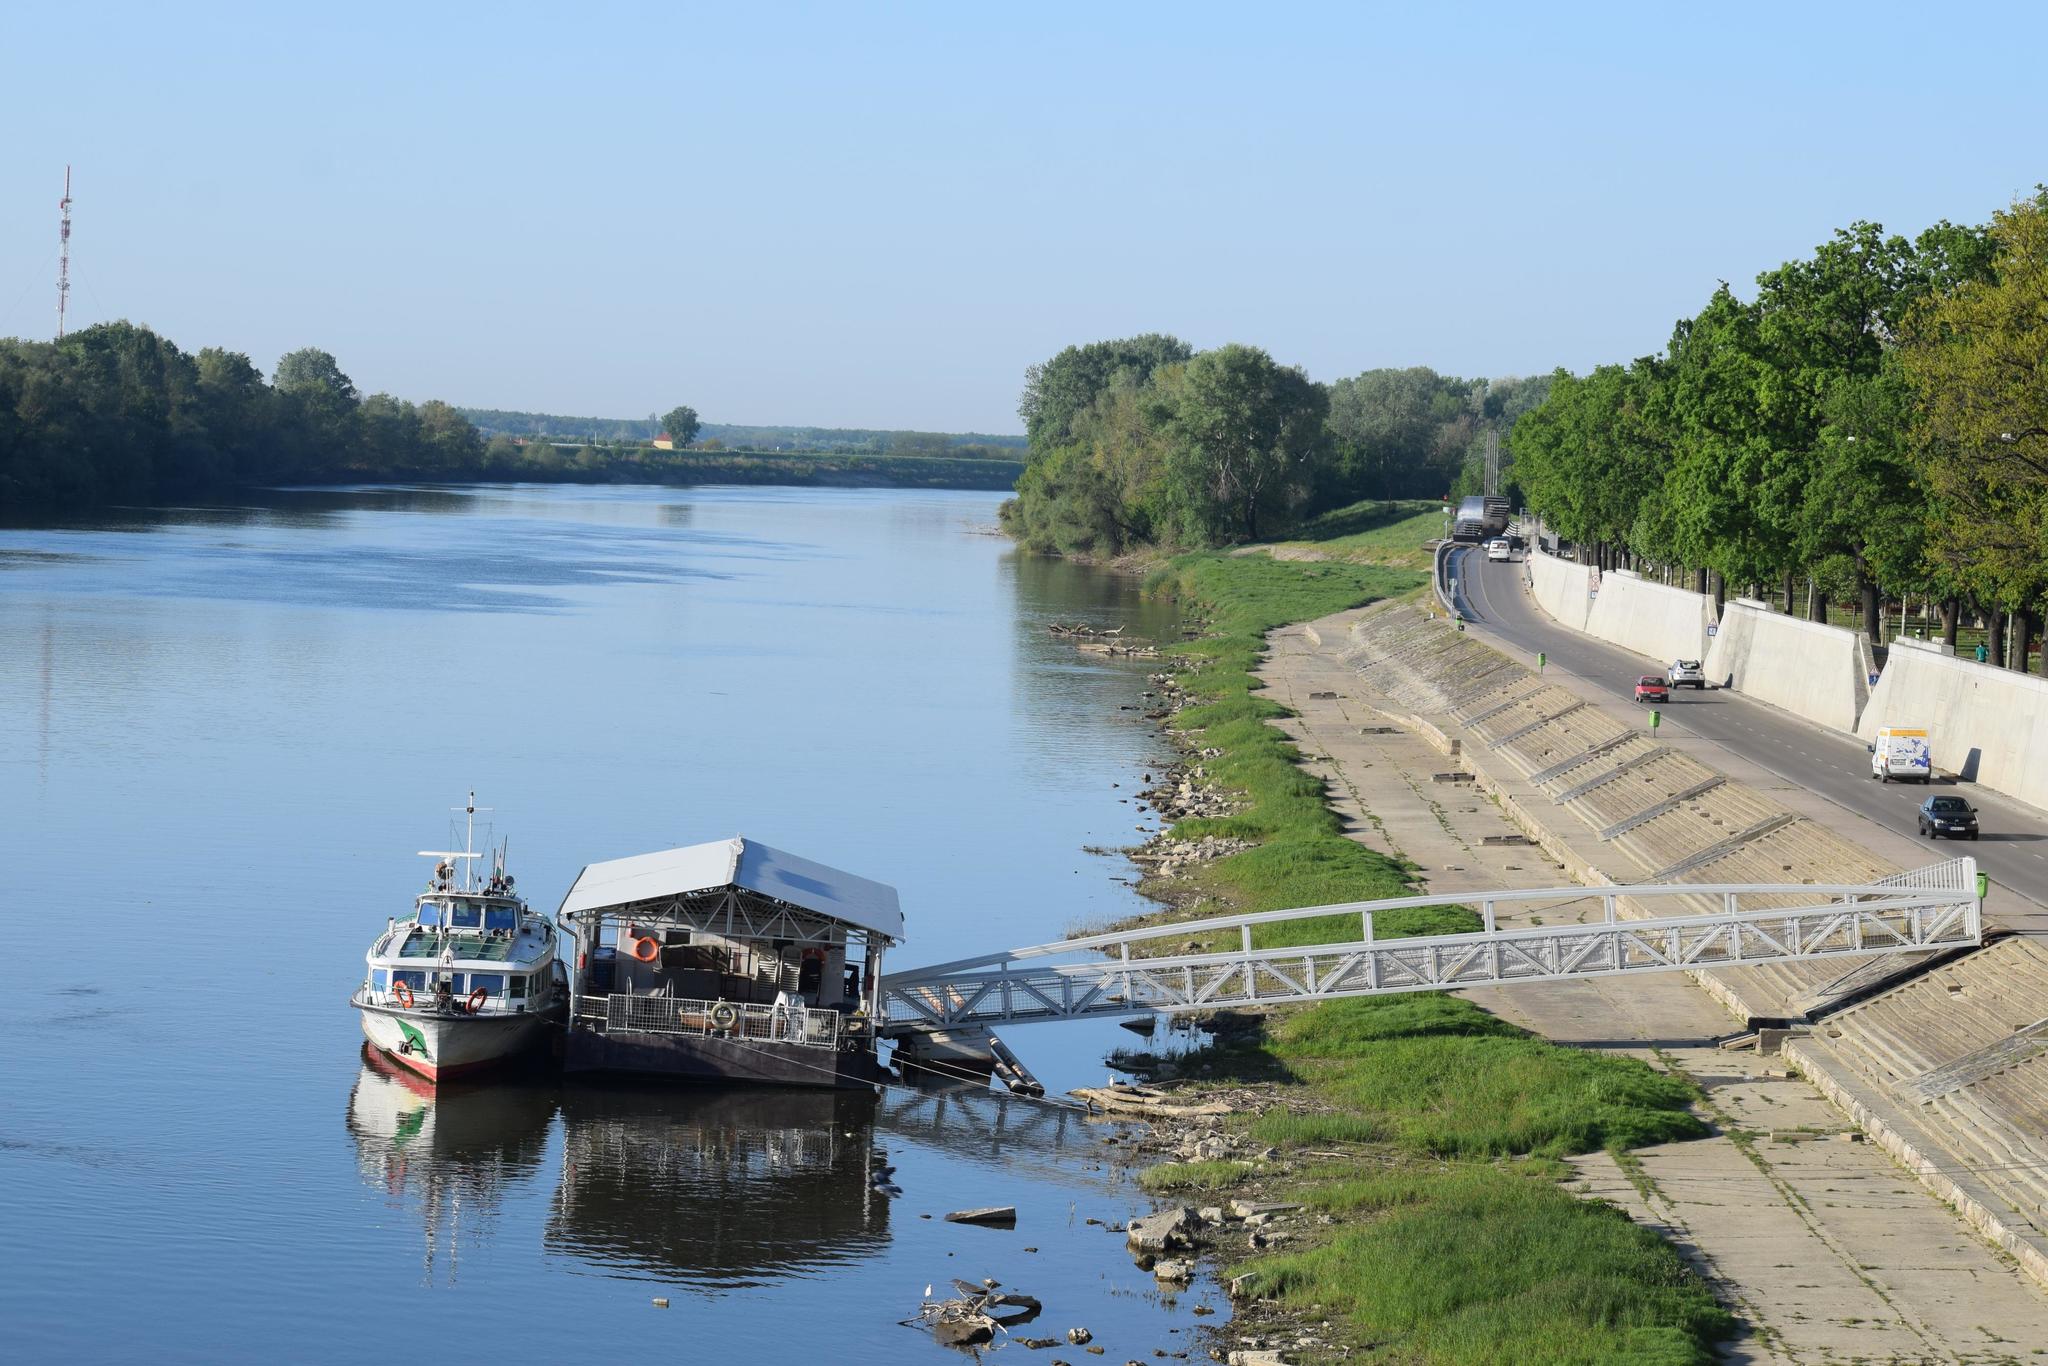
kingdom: Animalia
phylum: Chordata
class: Aves
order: Pelecaniformes
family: Ardeidae
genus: Egretta
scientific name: Egretta garzetta
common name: Little egret
